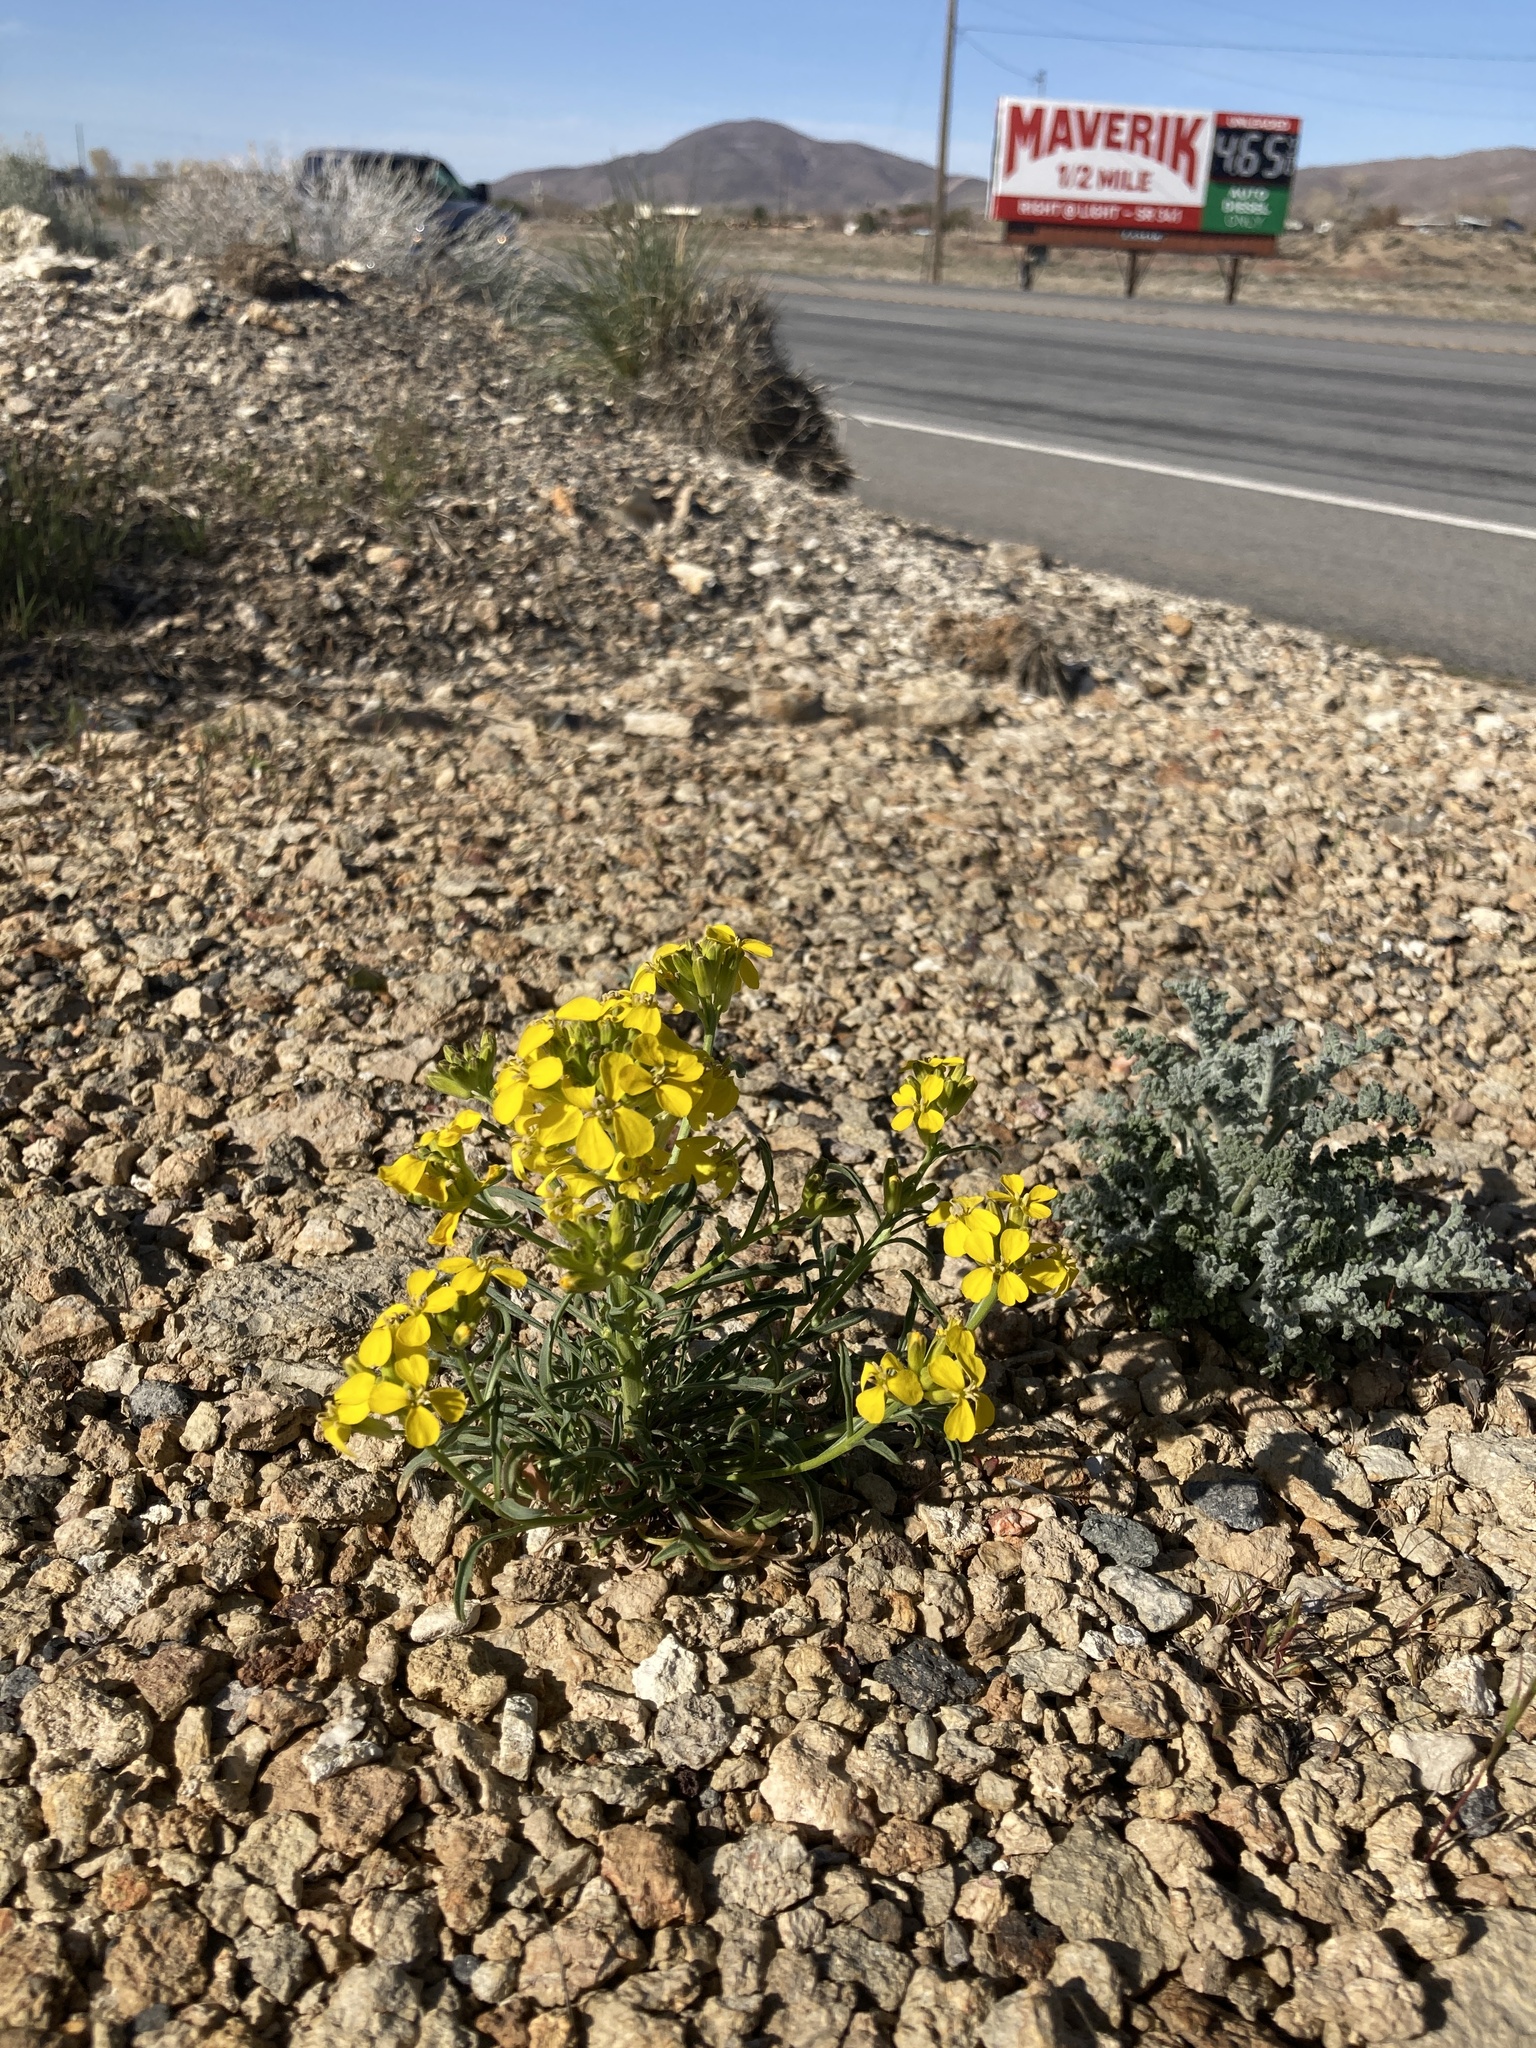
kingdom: Plantae
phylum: Tracheophyta
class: Magnoliopsida
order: Brassicales
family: Brassicaceae
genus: Erysimum
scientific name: Erysimum capitatum
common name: Western wallflower
